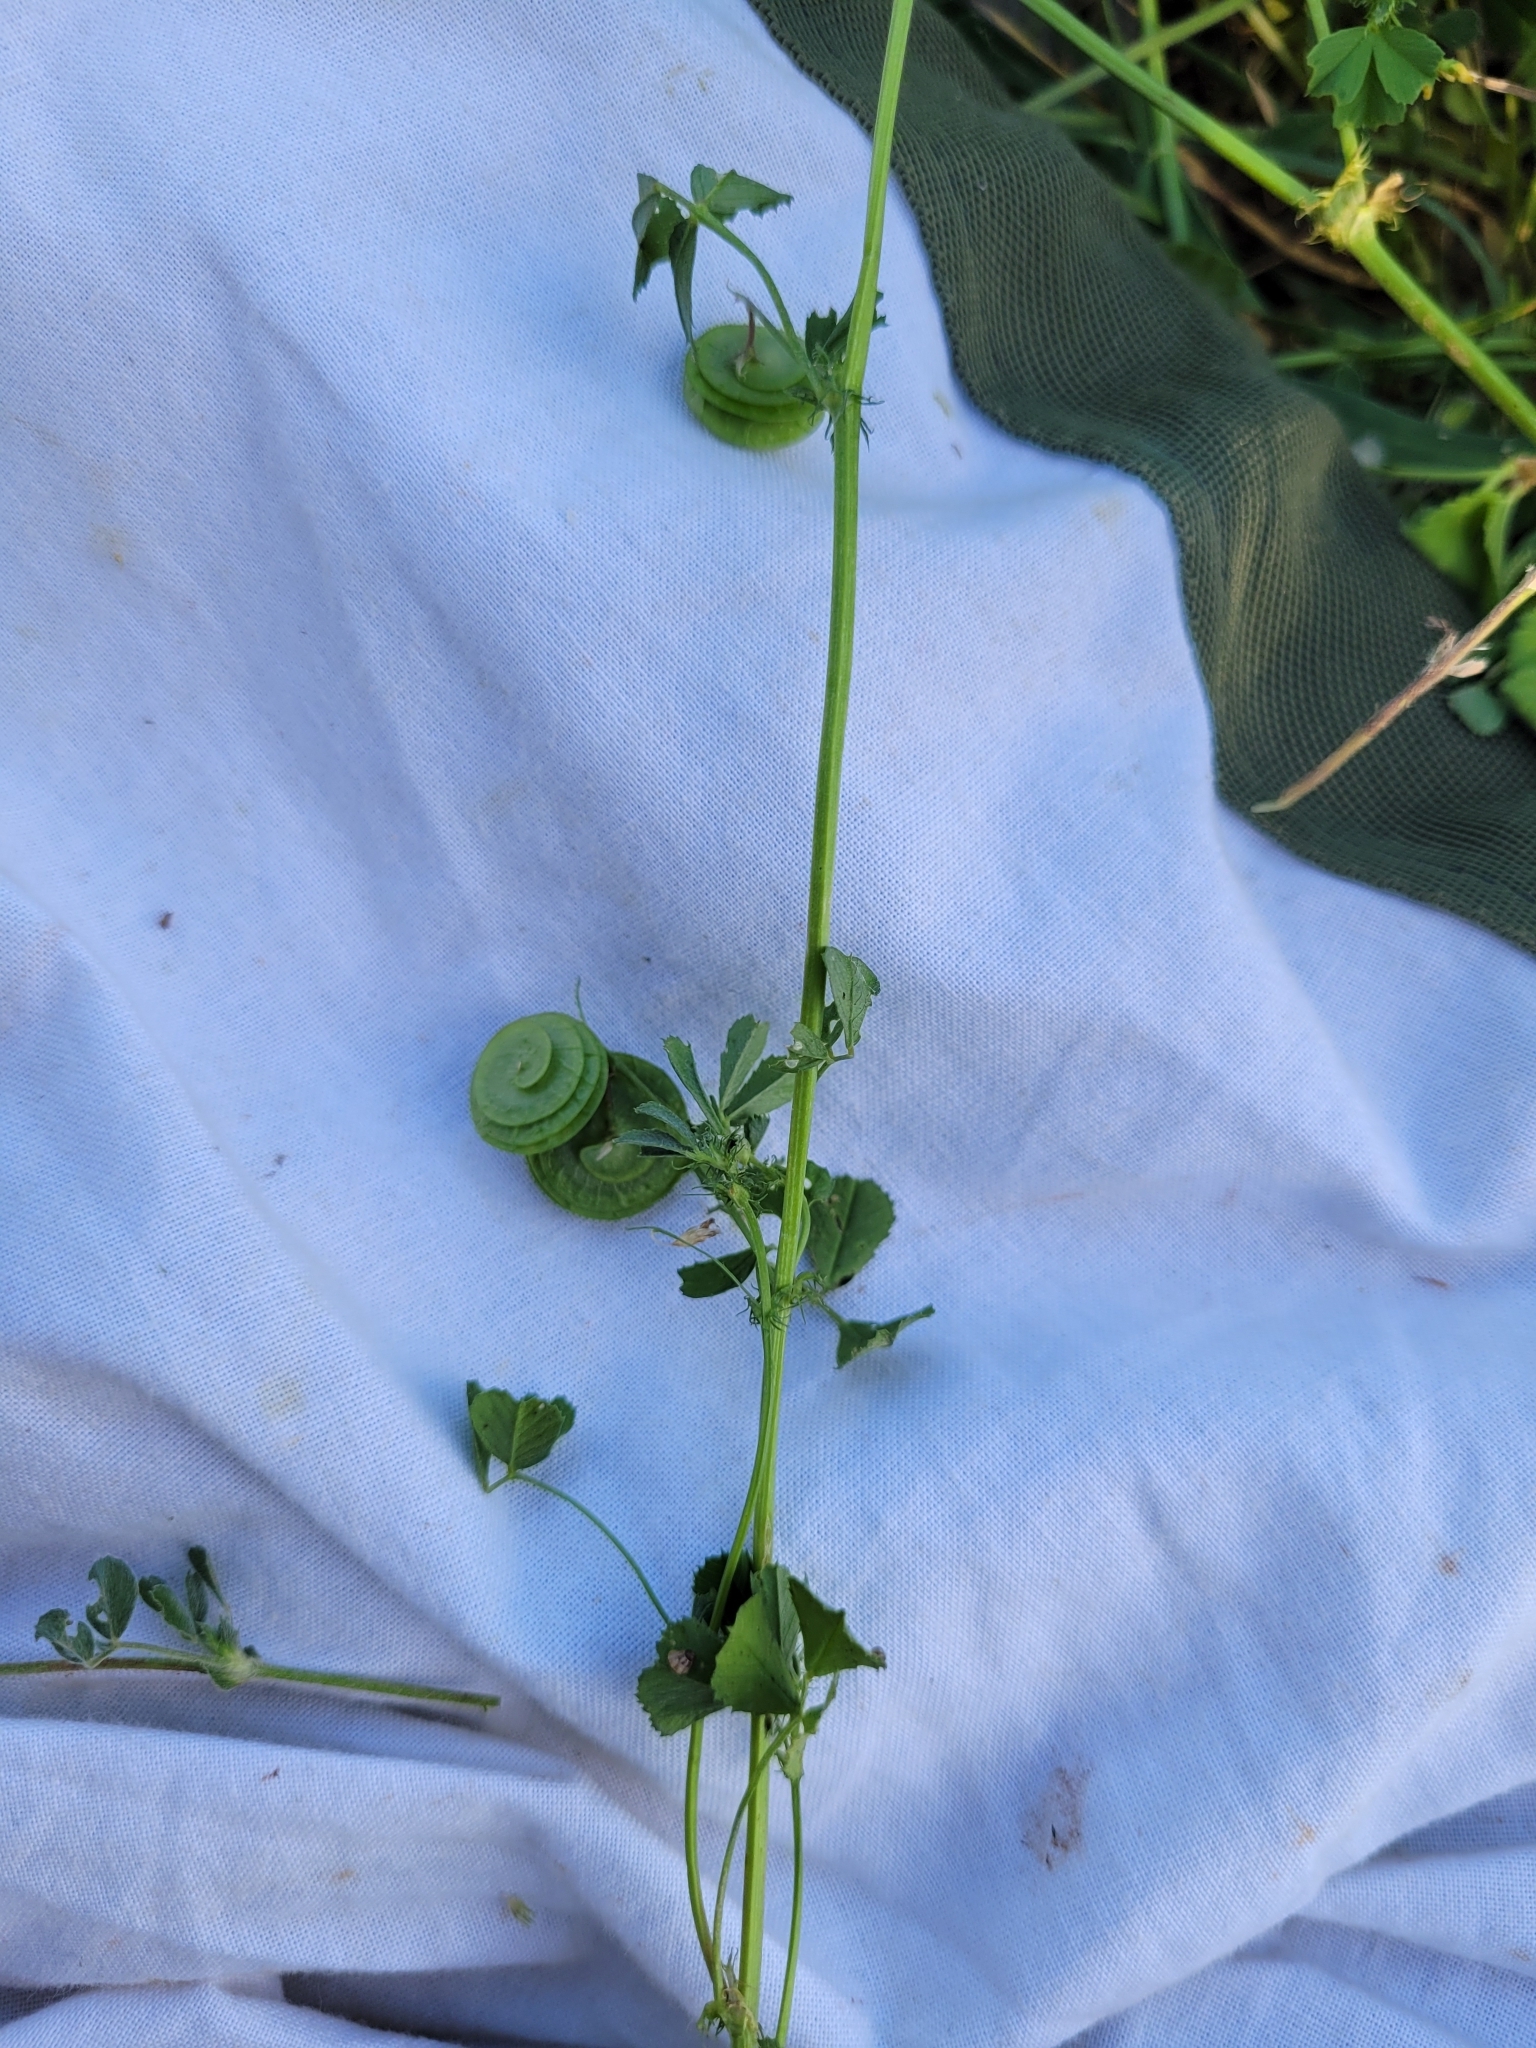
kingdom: Plantae
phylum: Tracheophyta
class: Magnoliopsida
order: Fabales
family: Fabaceae
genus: Medicago
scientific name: Medicago orbicularis
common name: Button medick
